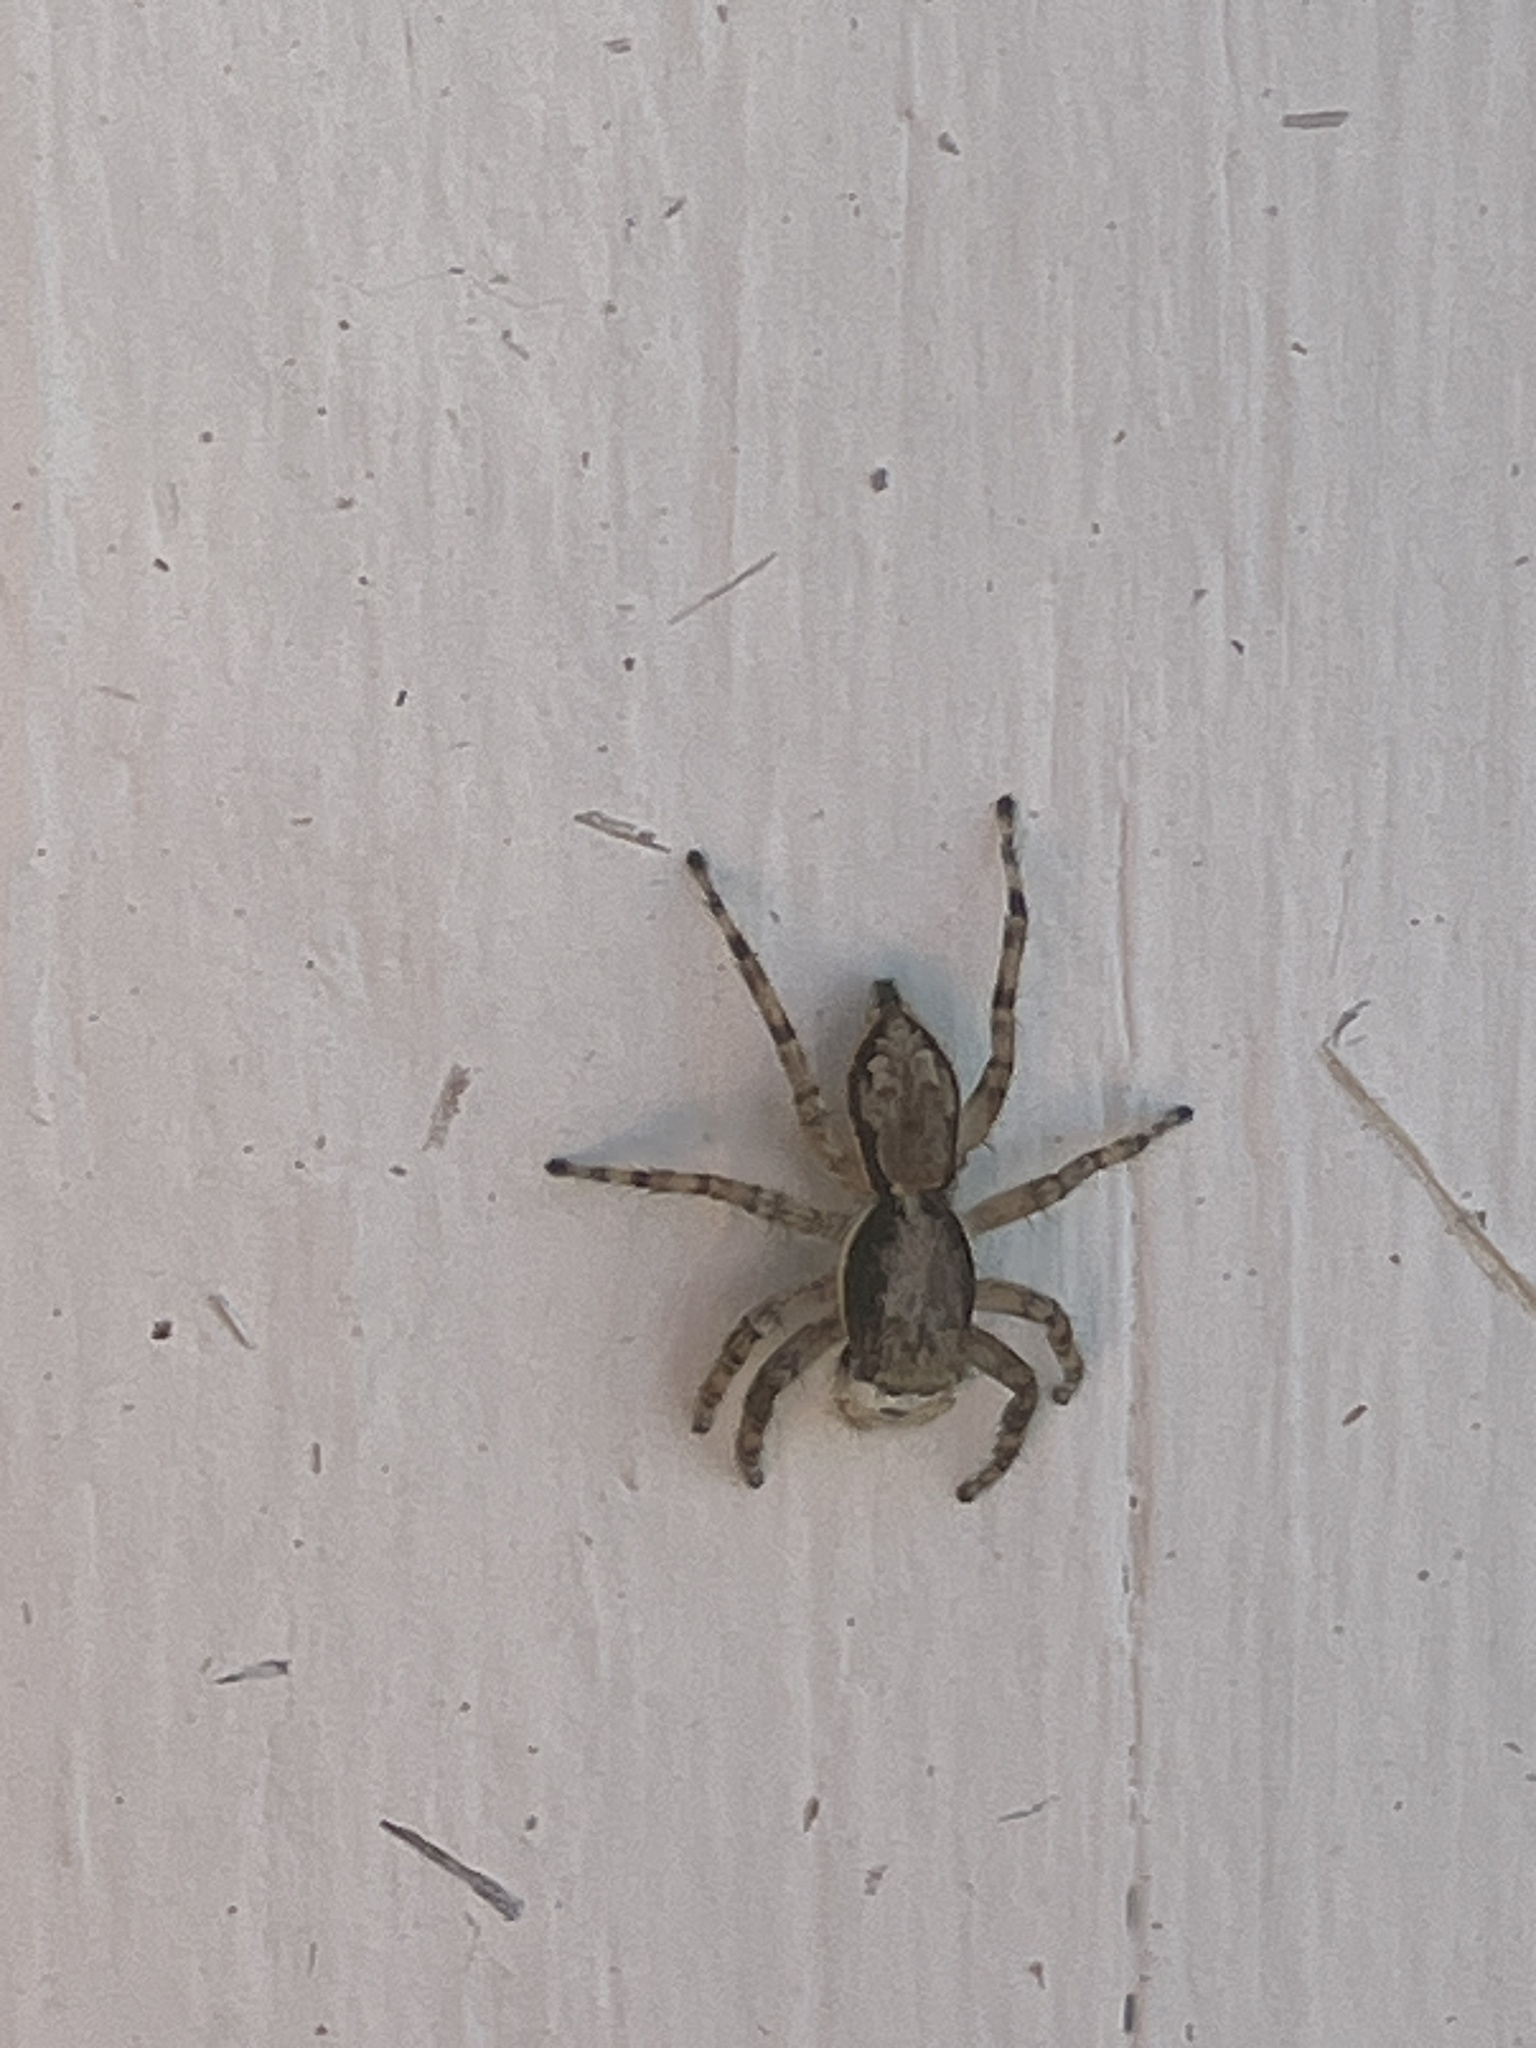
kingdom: Animalia
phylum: Arthropoda
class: Arachnida
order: Araneae
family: Salticidae
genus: Menemerus
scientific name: Menemerus bivittatus
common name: Gray wall jumper
